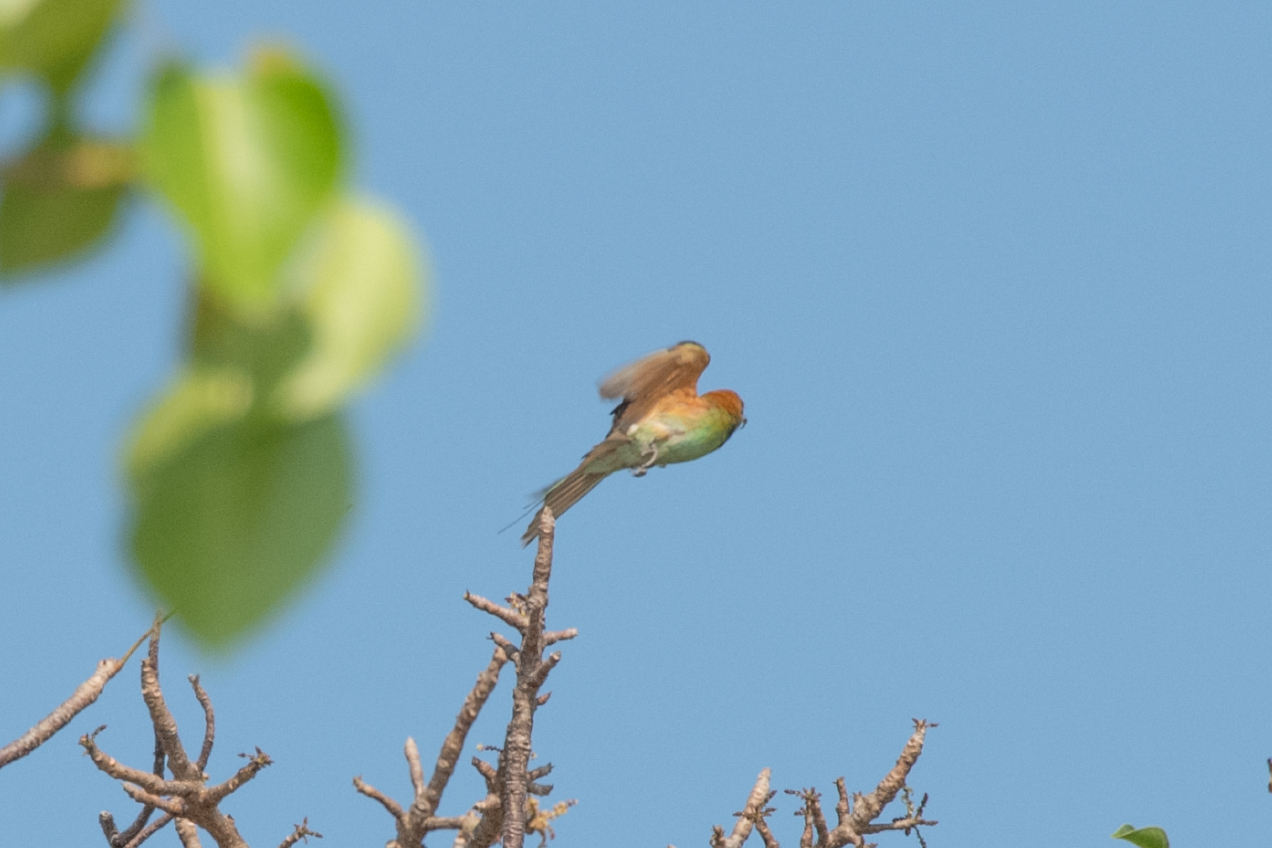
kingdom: Animalia
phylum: Chordata
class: Aves
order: Coraciiformes
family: Meropidae
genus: Merops
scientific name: Merops orientalis
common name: Green bee-eater
